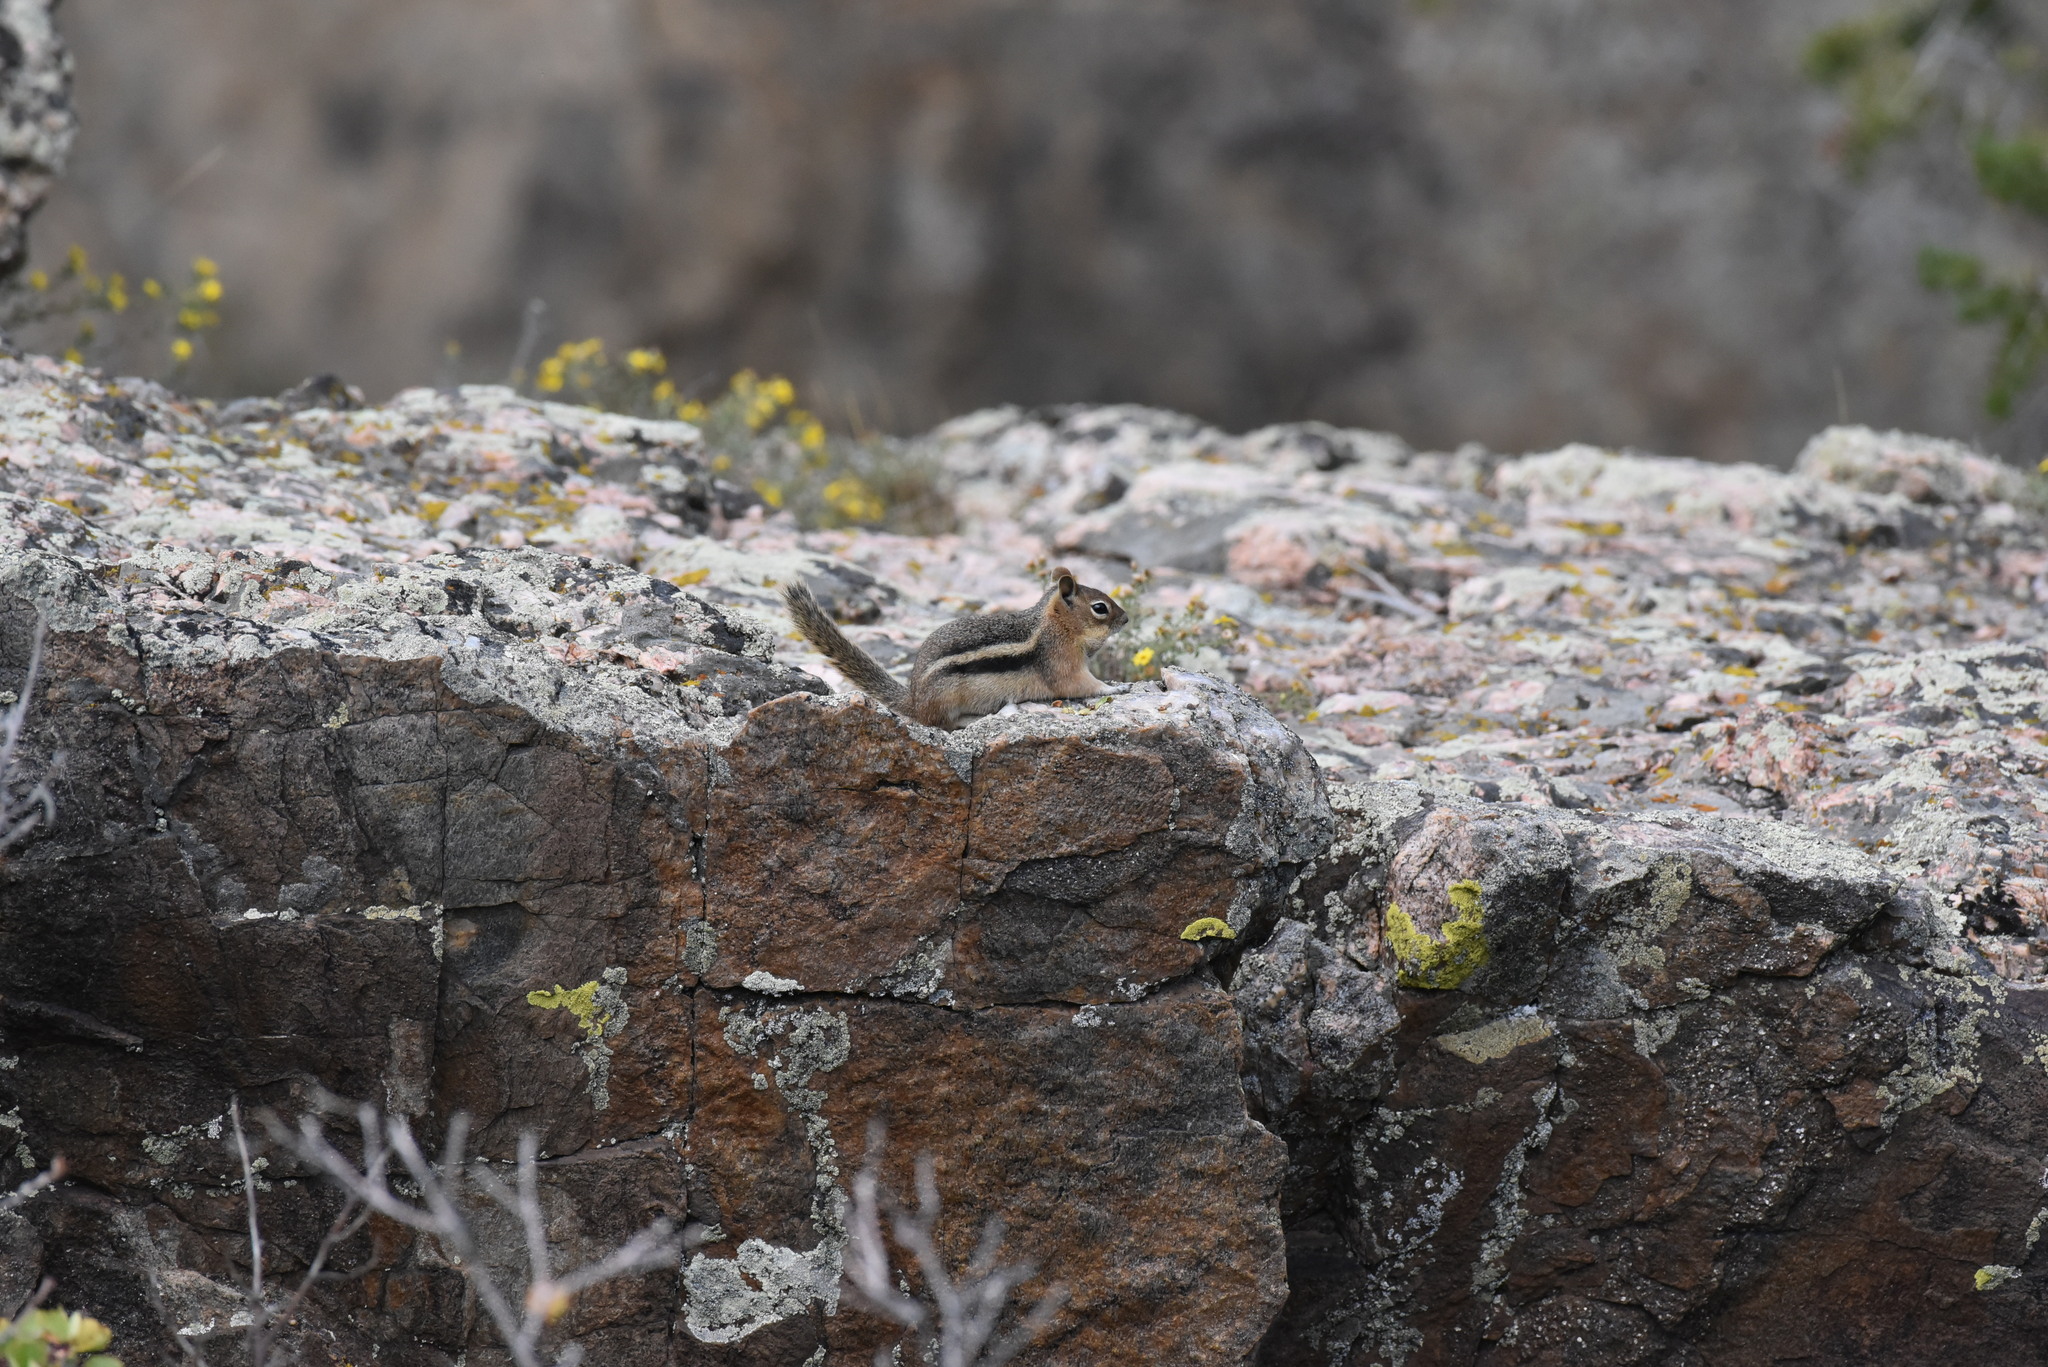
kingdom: Animalia
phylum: Chordata
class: Mammalia
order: Rodentia
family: Sciuridae
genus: Callospermophilus
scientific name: Callospermophilus lateralis
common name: Golden-mantled ground squirrel
